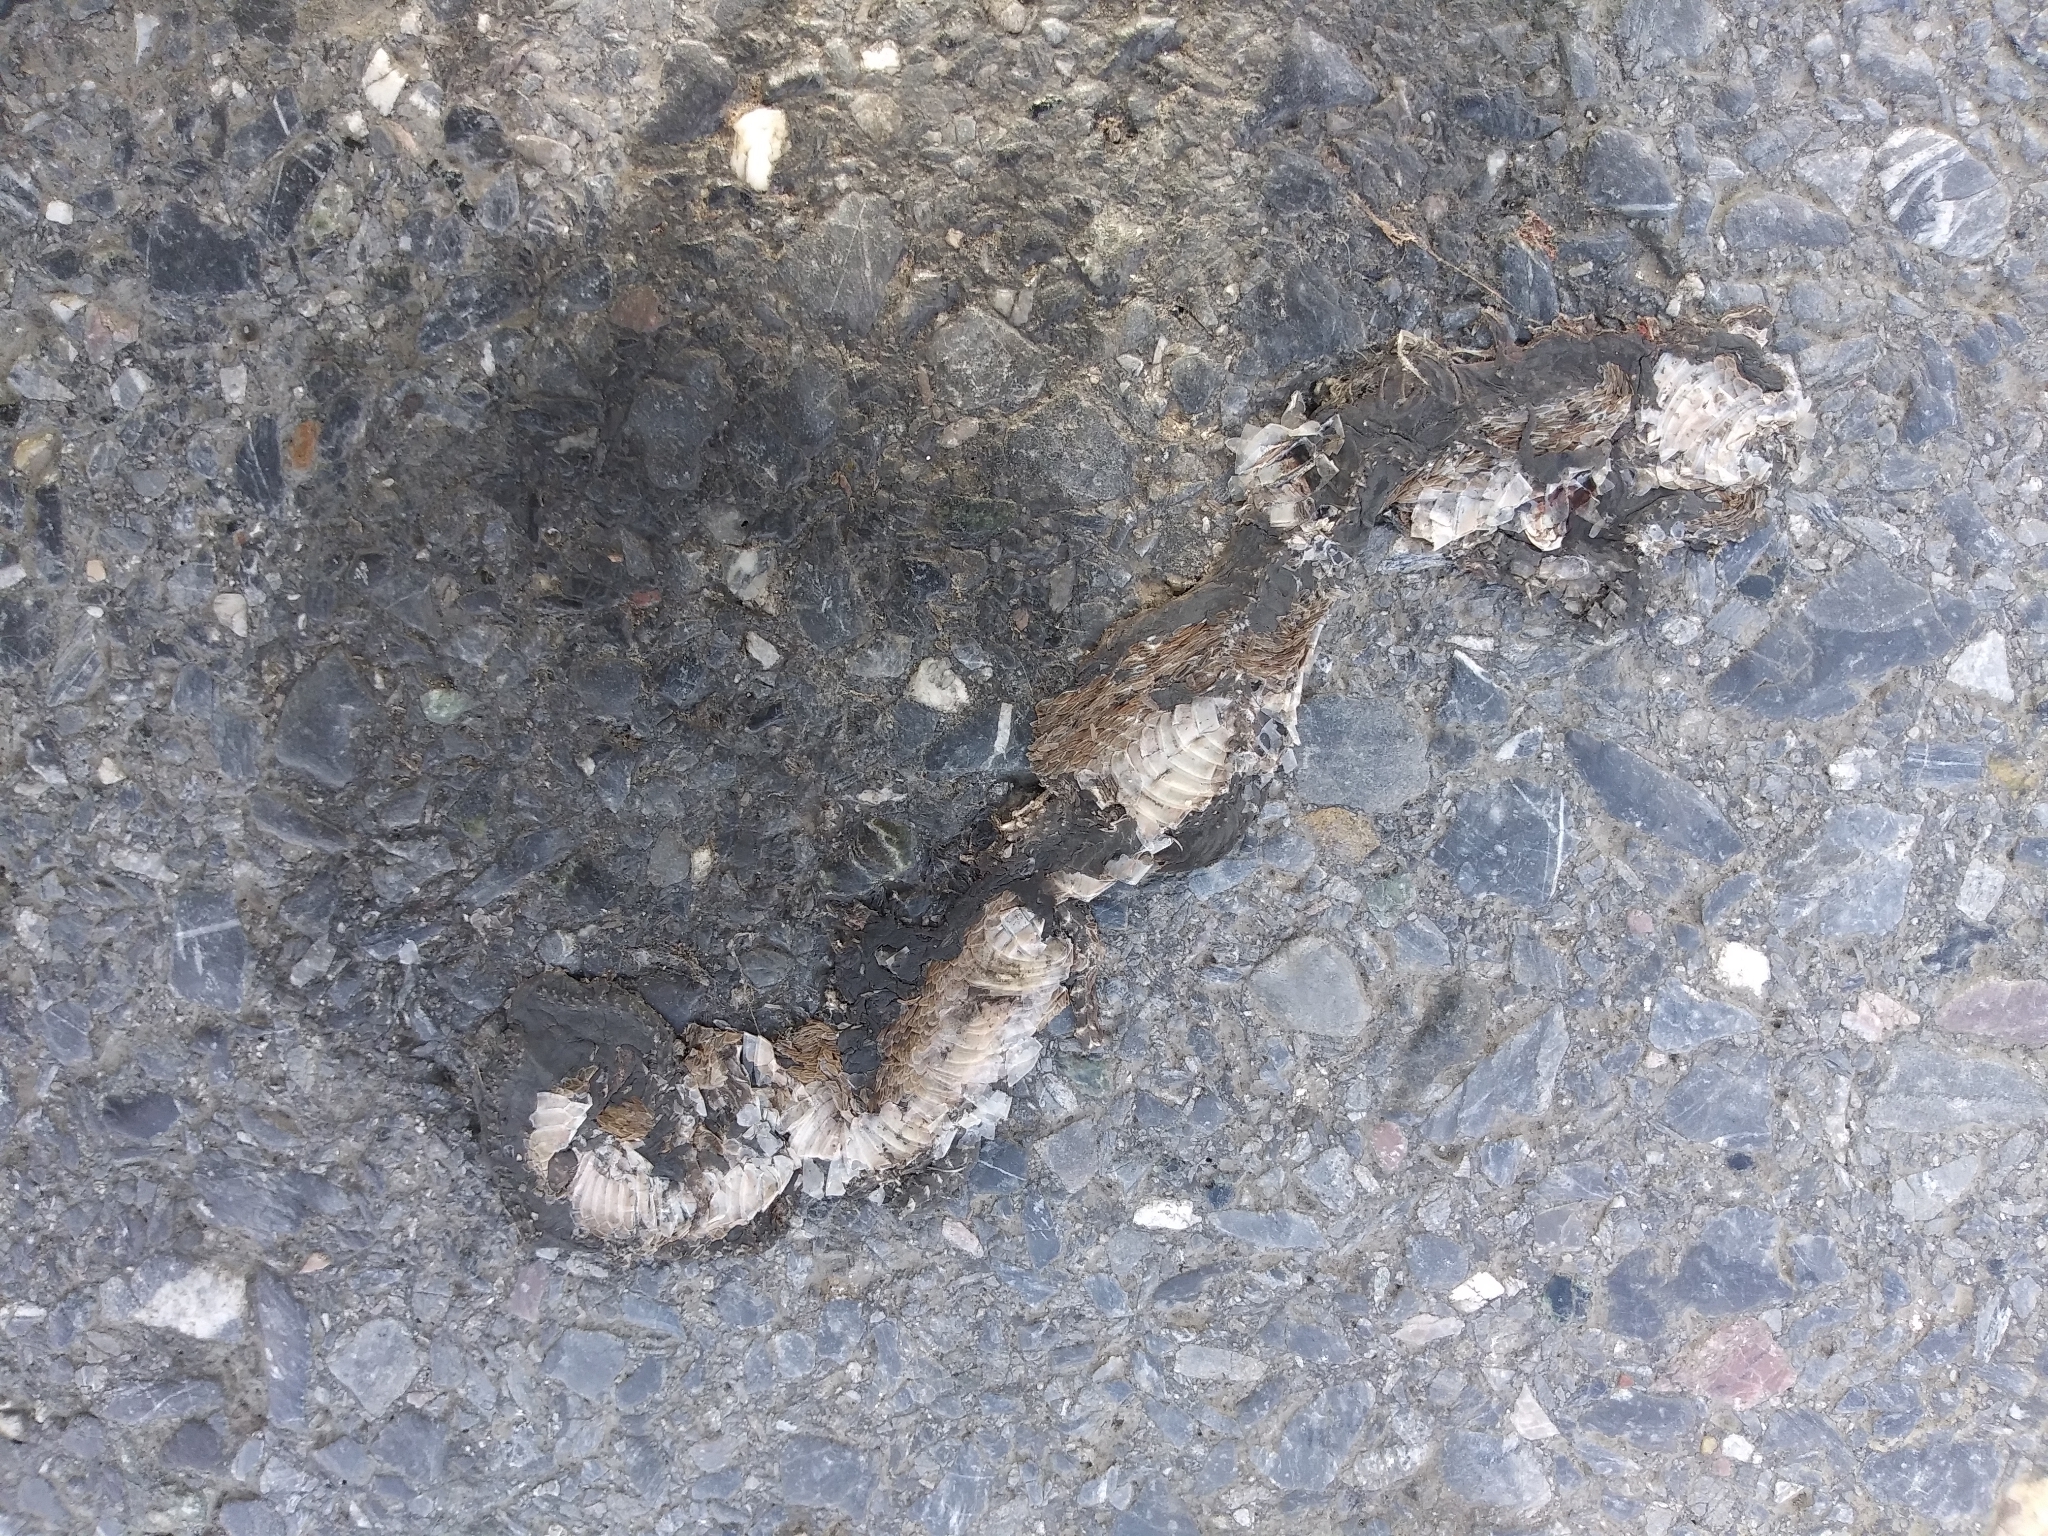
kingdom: Animalia
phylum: Chordata
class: Squamata
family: Colubridae
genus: Storeria
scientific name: Storeria dekayi
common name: (dekay’s) brown snake
